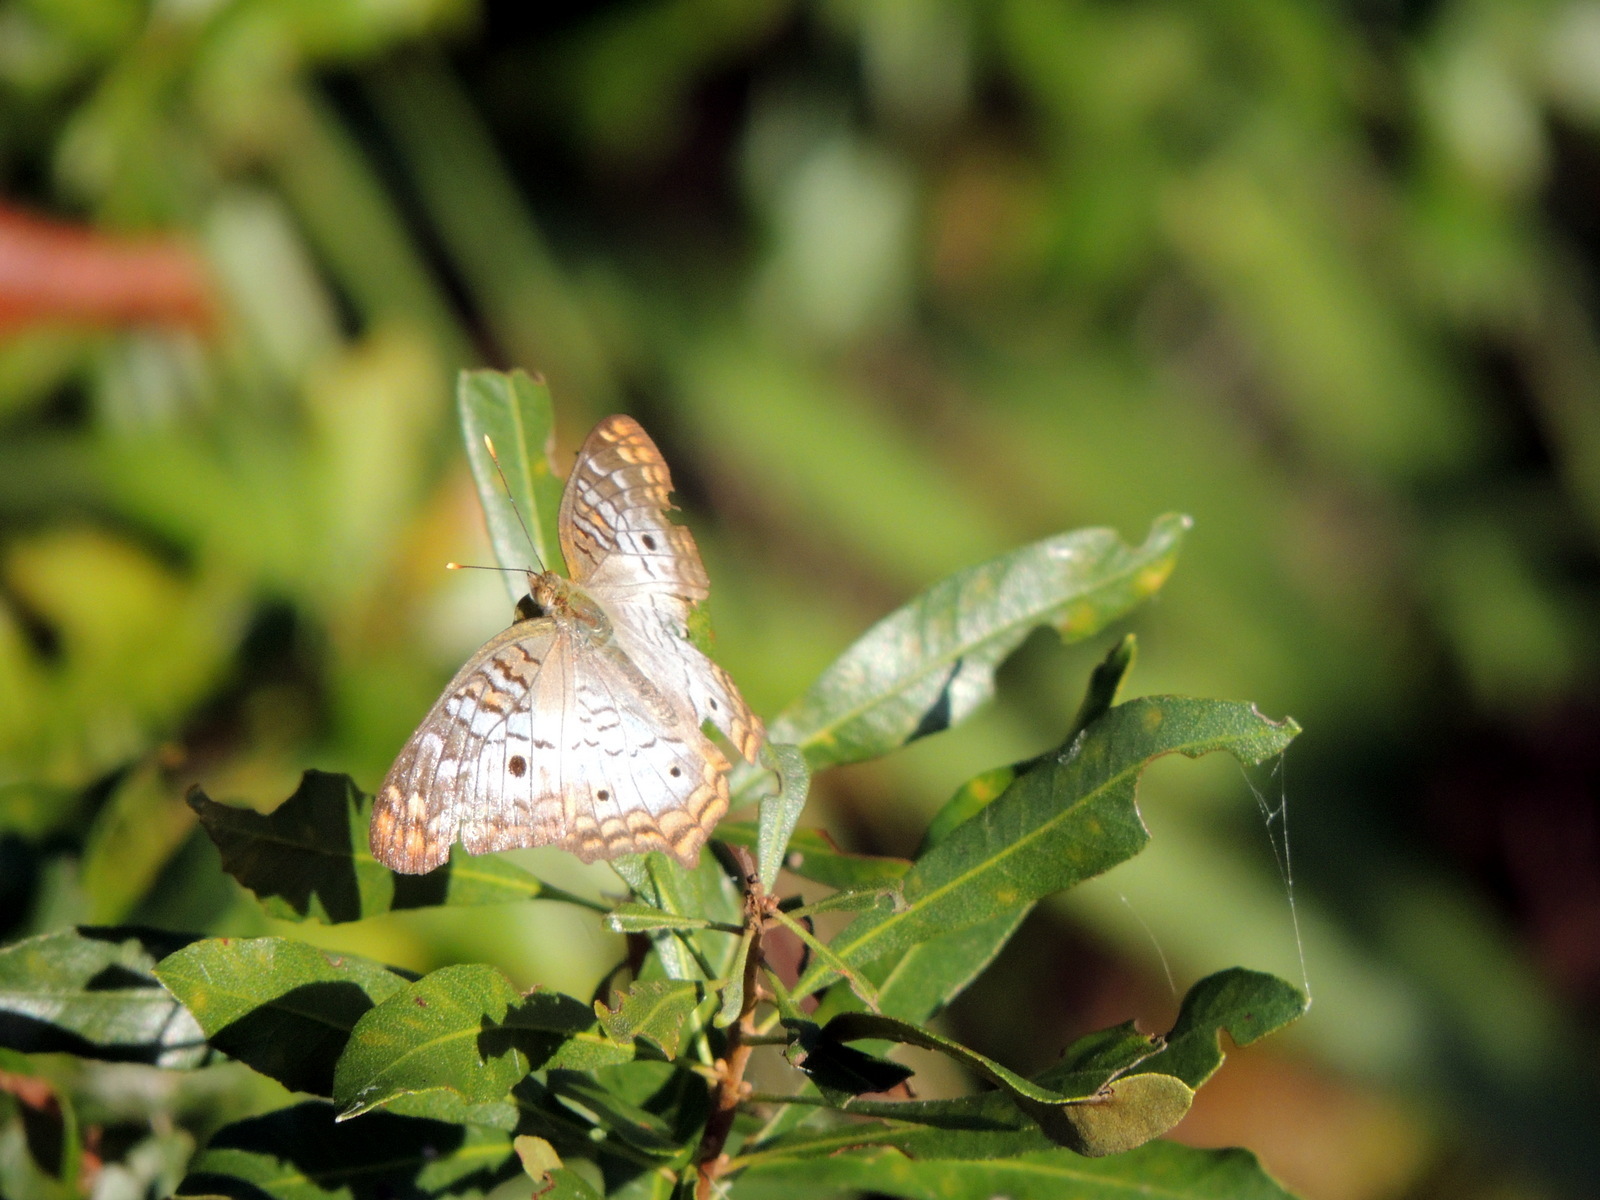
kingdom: Animalia
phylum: Arthropoda
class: Insecta
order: Lepidoptera
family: Nymphalidae
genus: Anartia
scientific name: Anartia jatrophae
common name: White peacock
